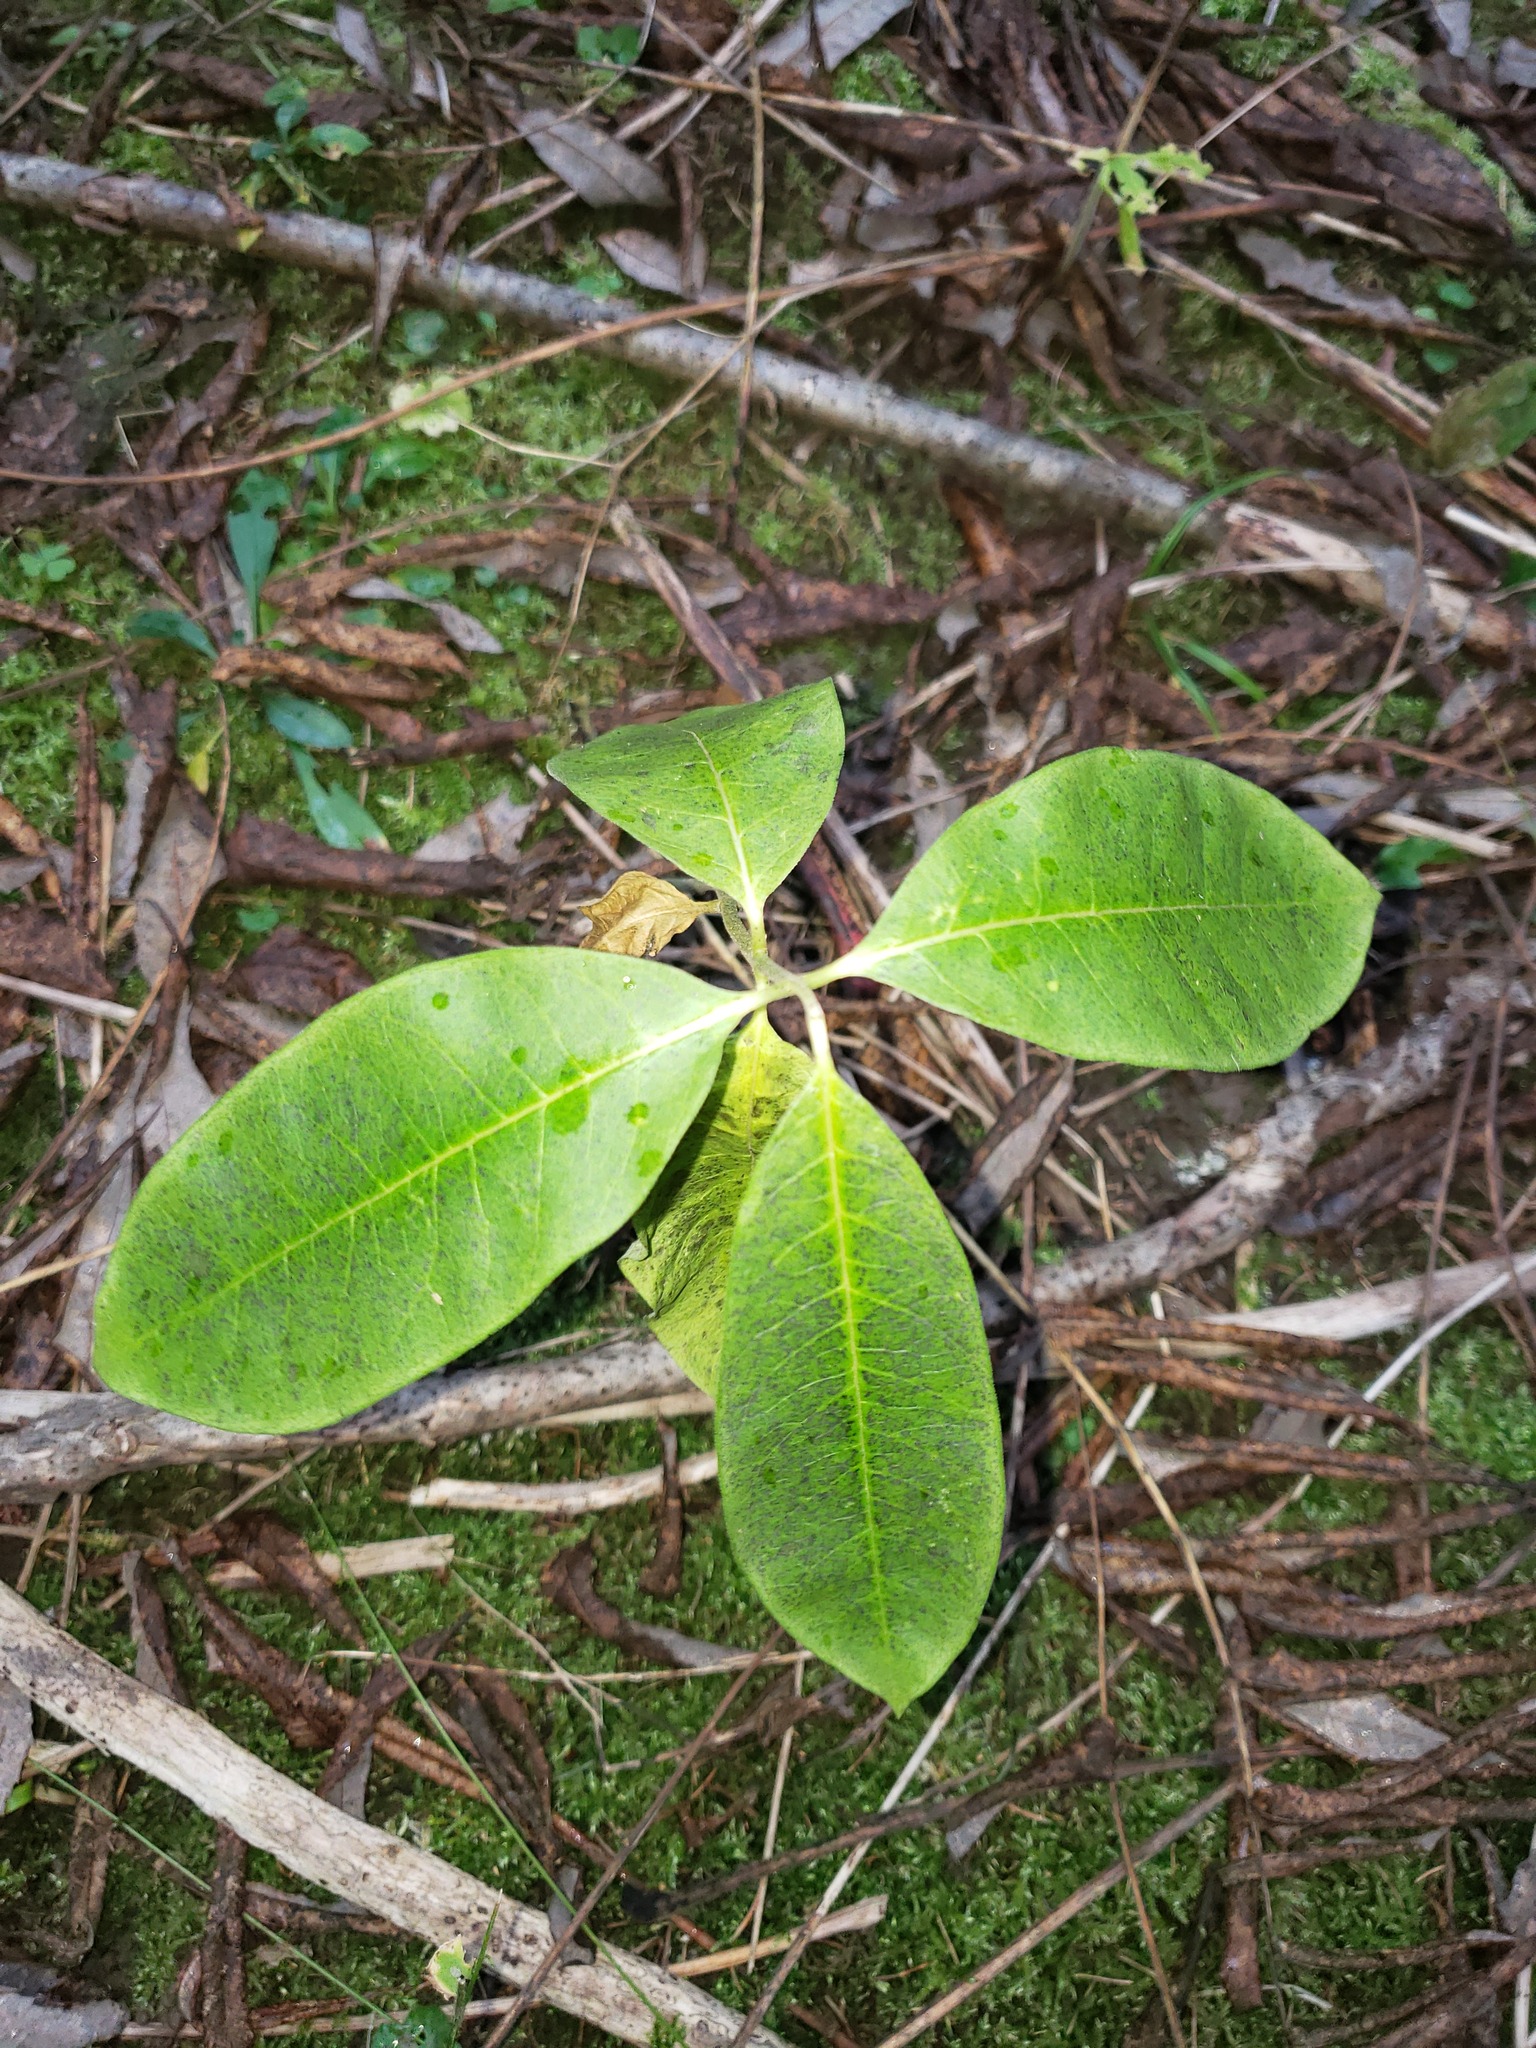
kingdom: Plantae
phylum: Tracheophyta
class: Magnoliopsida
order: Gentianales
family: Apocynaceae
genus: Asclepias
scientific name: Asclepias syriaca
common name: Common milkweed
